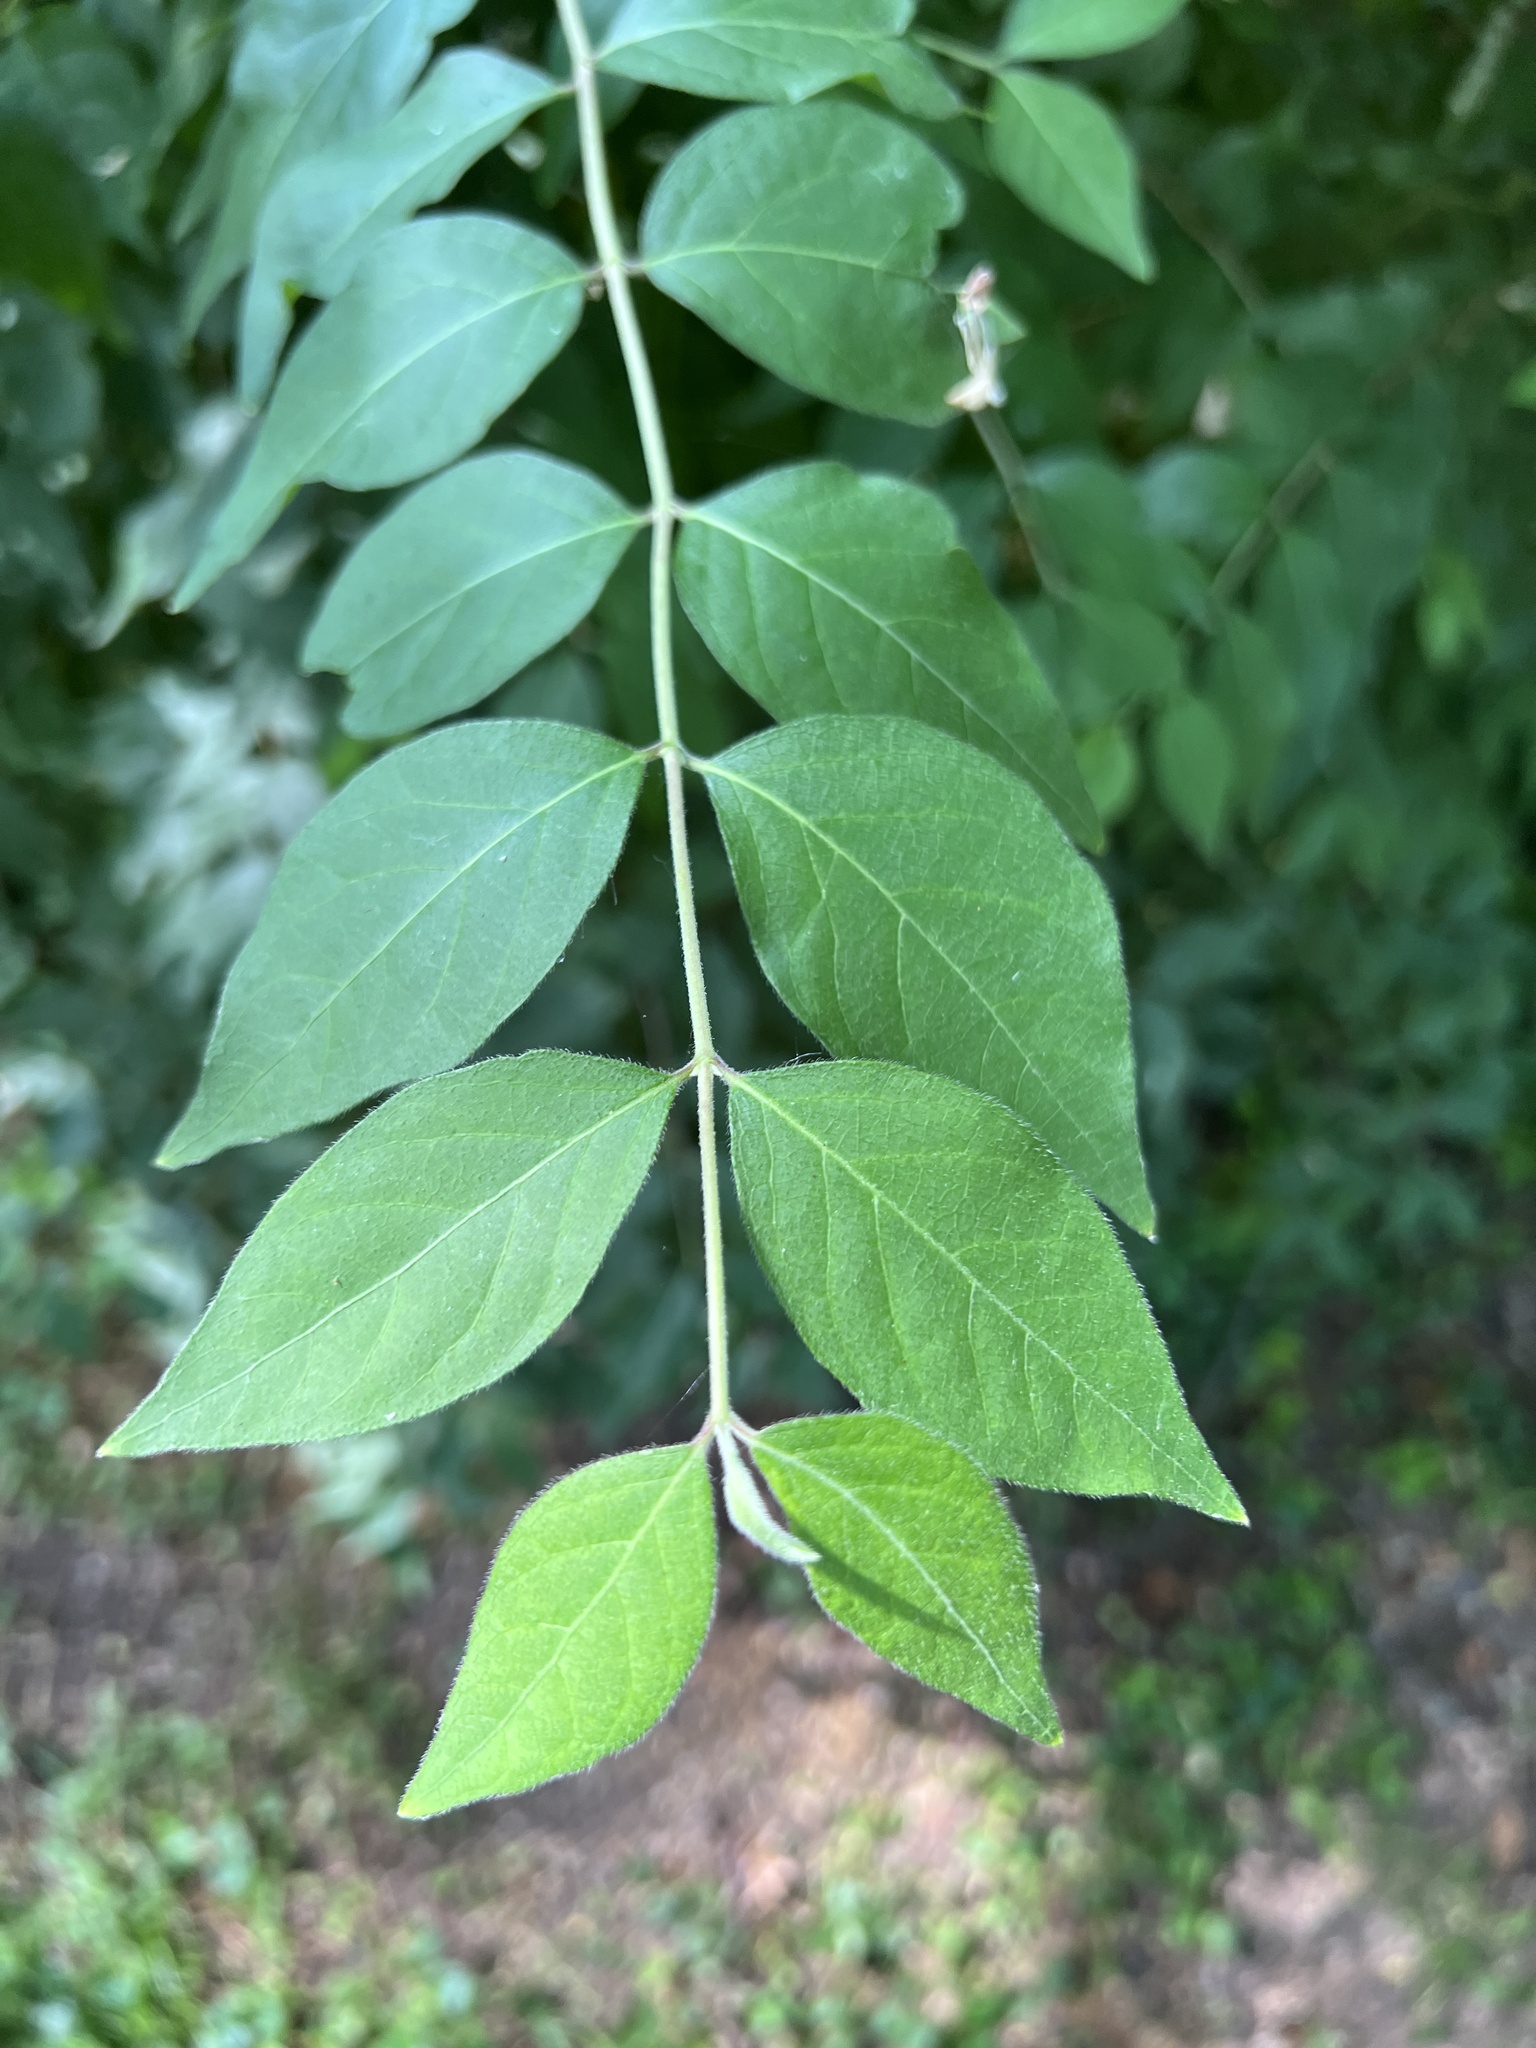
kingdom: Plantae
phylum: Tracheophyta
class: Magnoliopsida
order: Dipsacales
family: Caprifoliaceae
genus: Lonicera
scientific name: Lonicera maackii
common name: Amur honeysuckle
